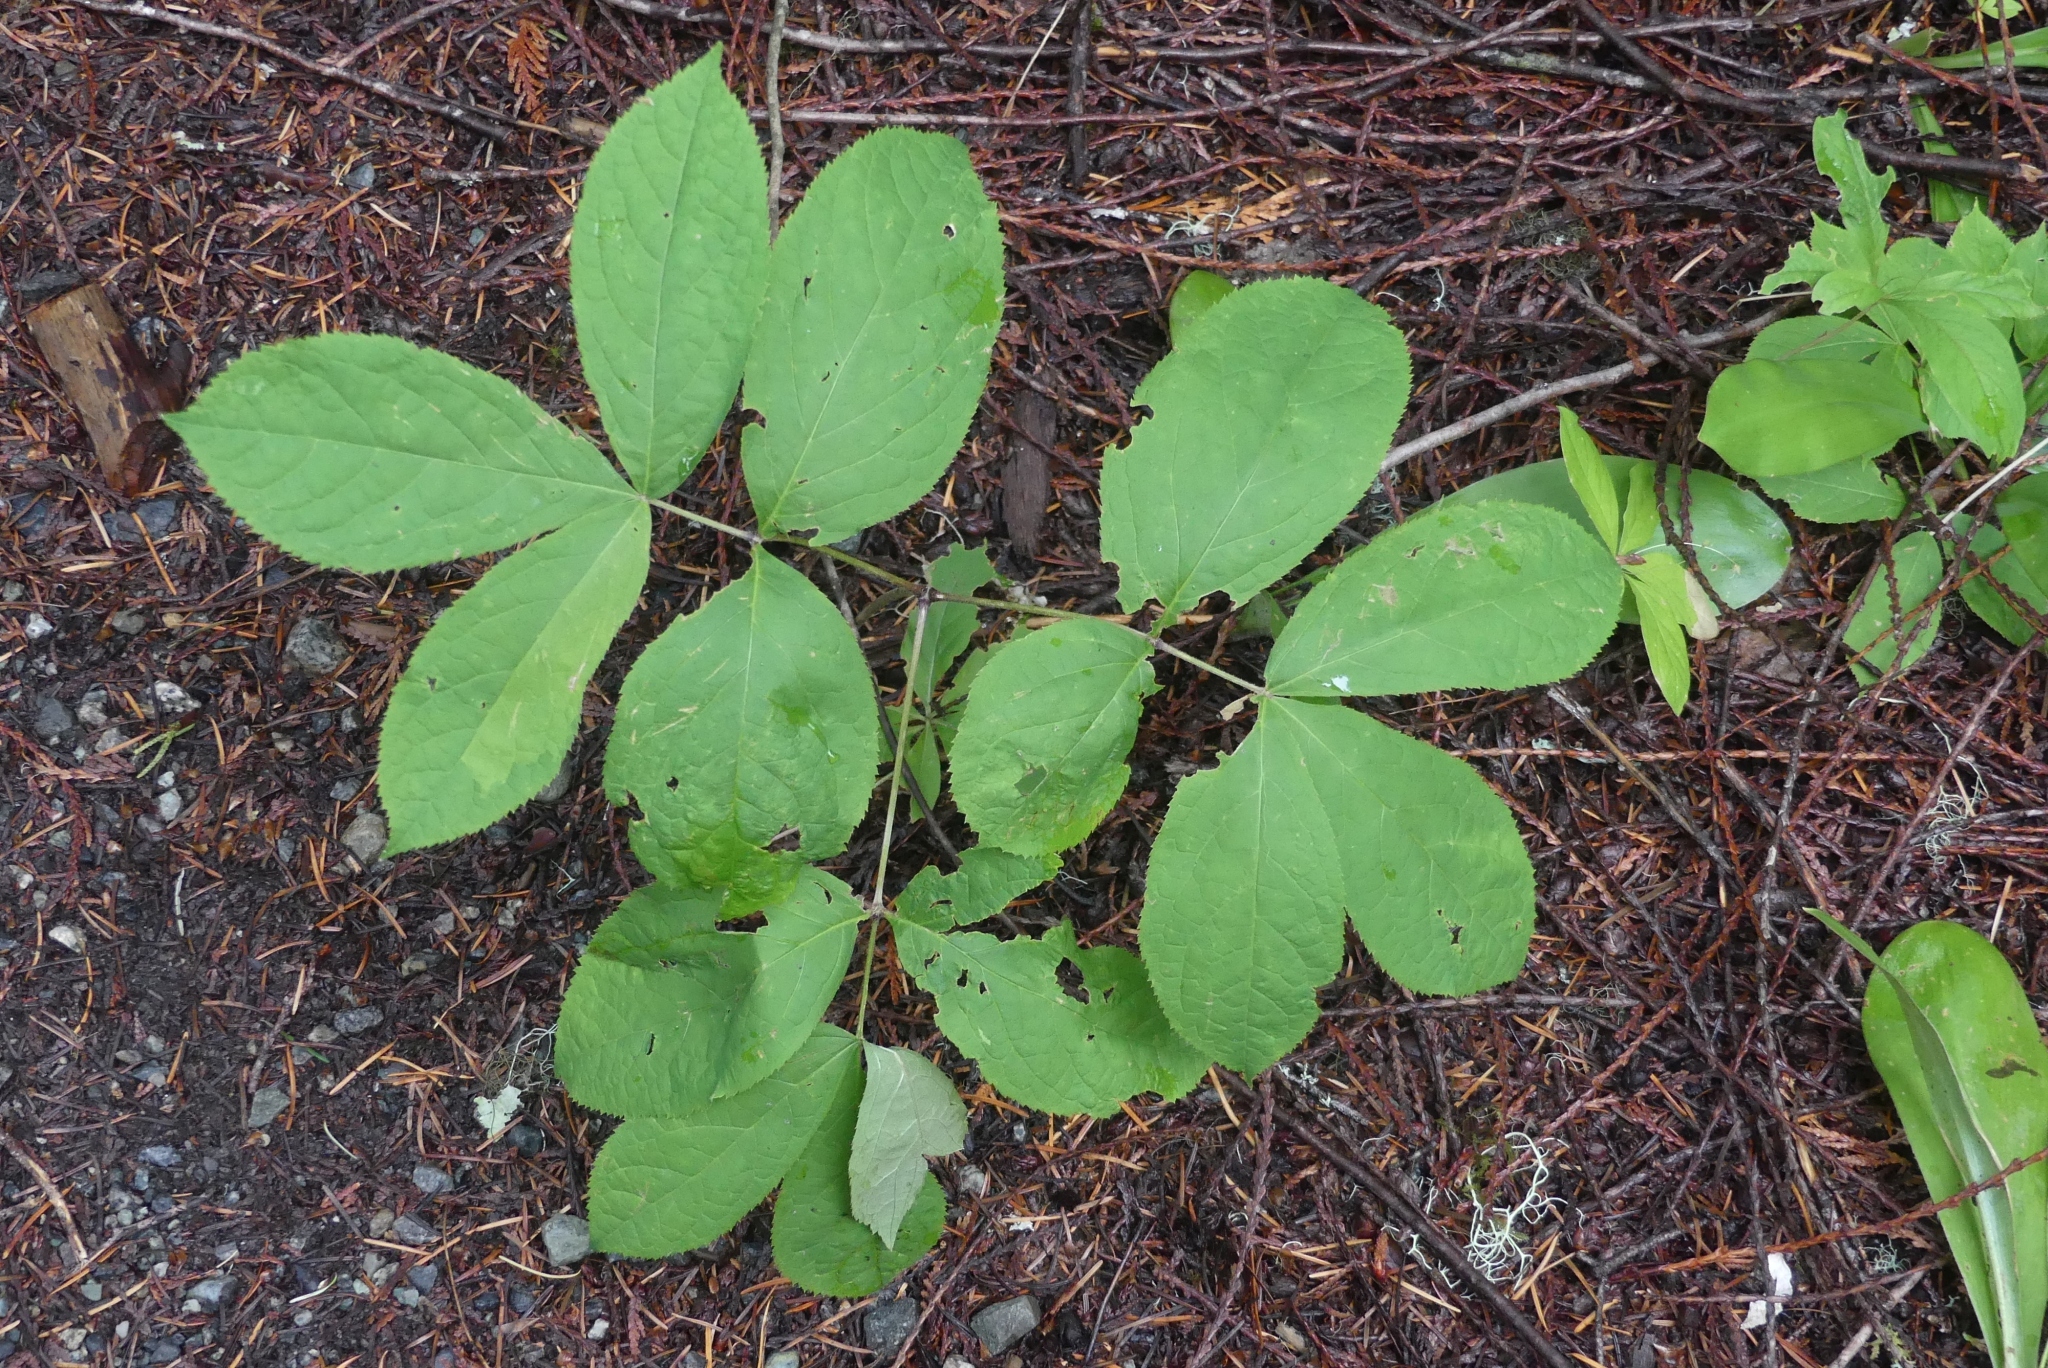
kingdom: Plantae
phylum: Tracheophyta
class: Magnoliopsida
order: Apiales
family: Araliaceae
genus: Aralia
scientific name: Aralia nudicaulis
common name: Wild sarsaparilla
